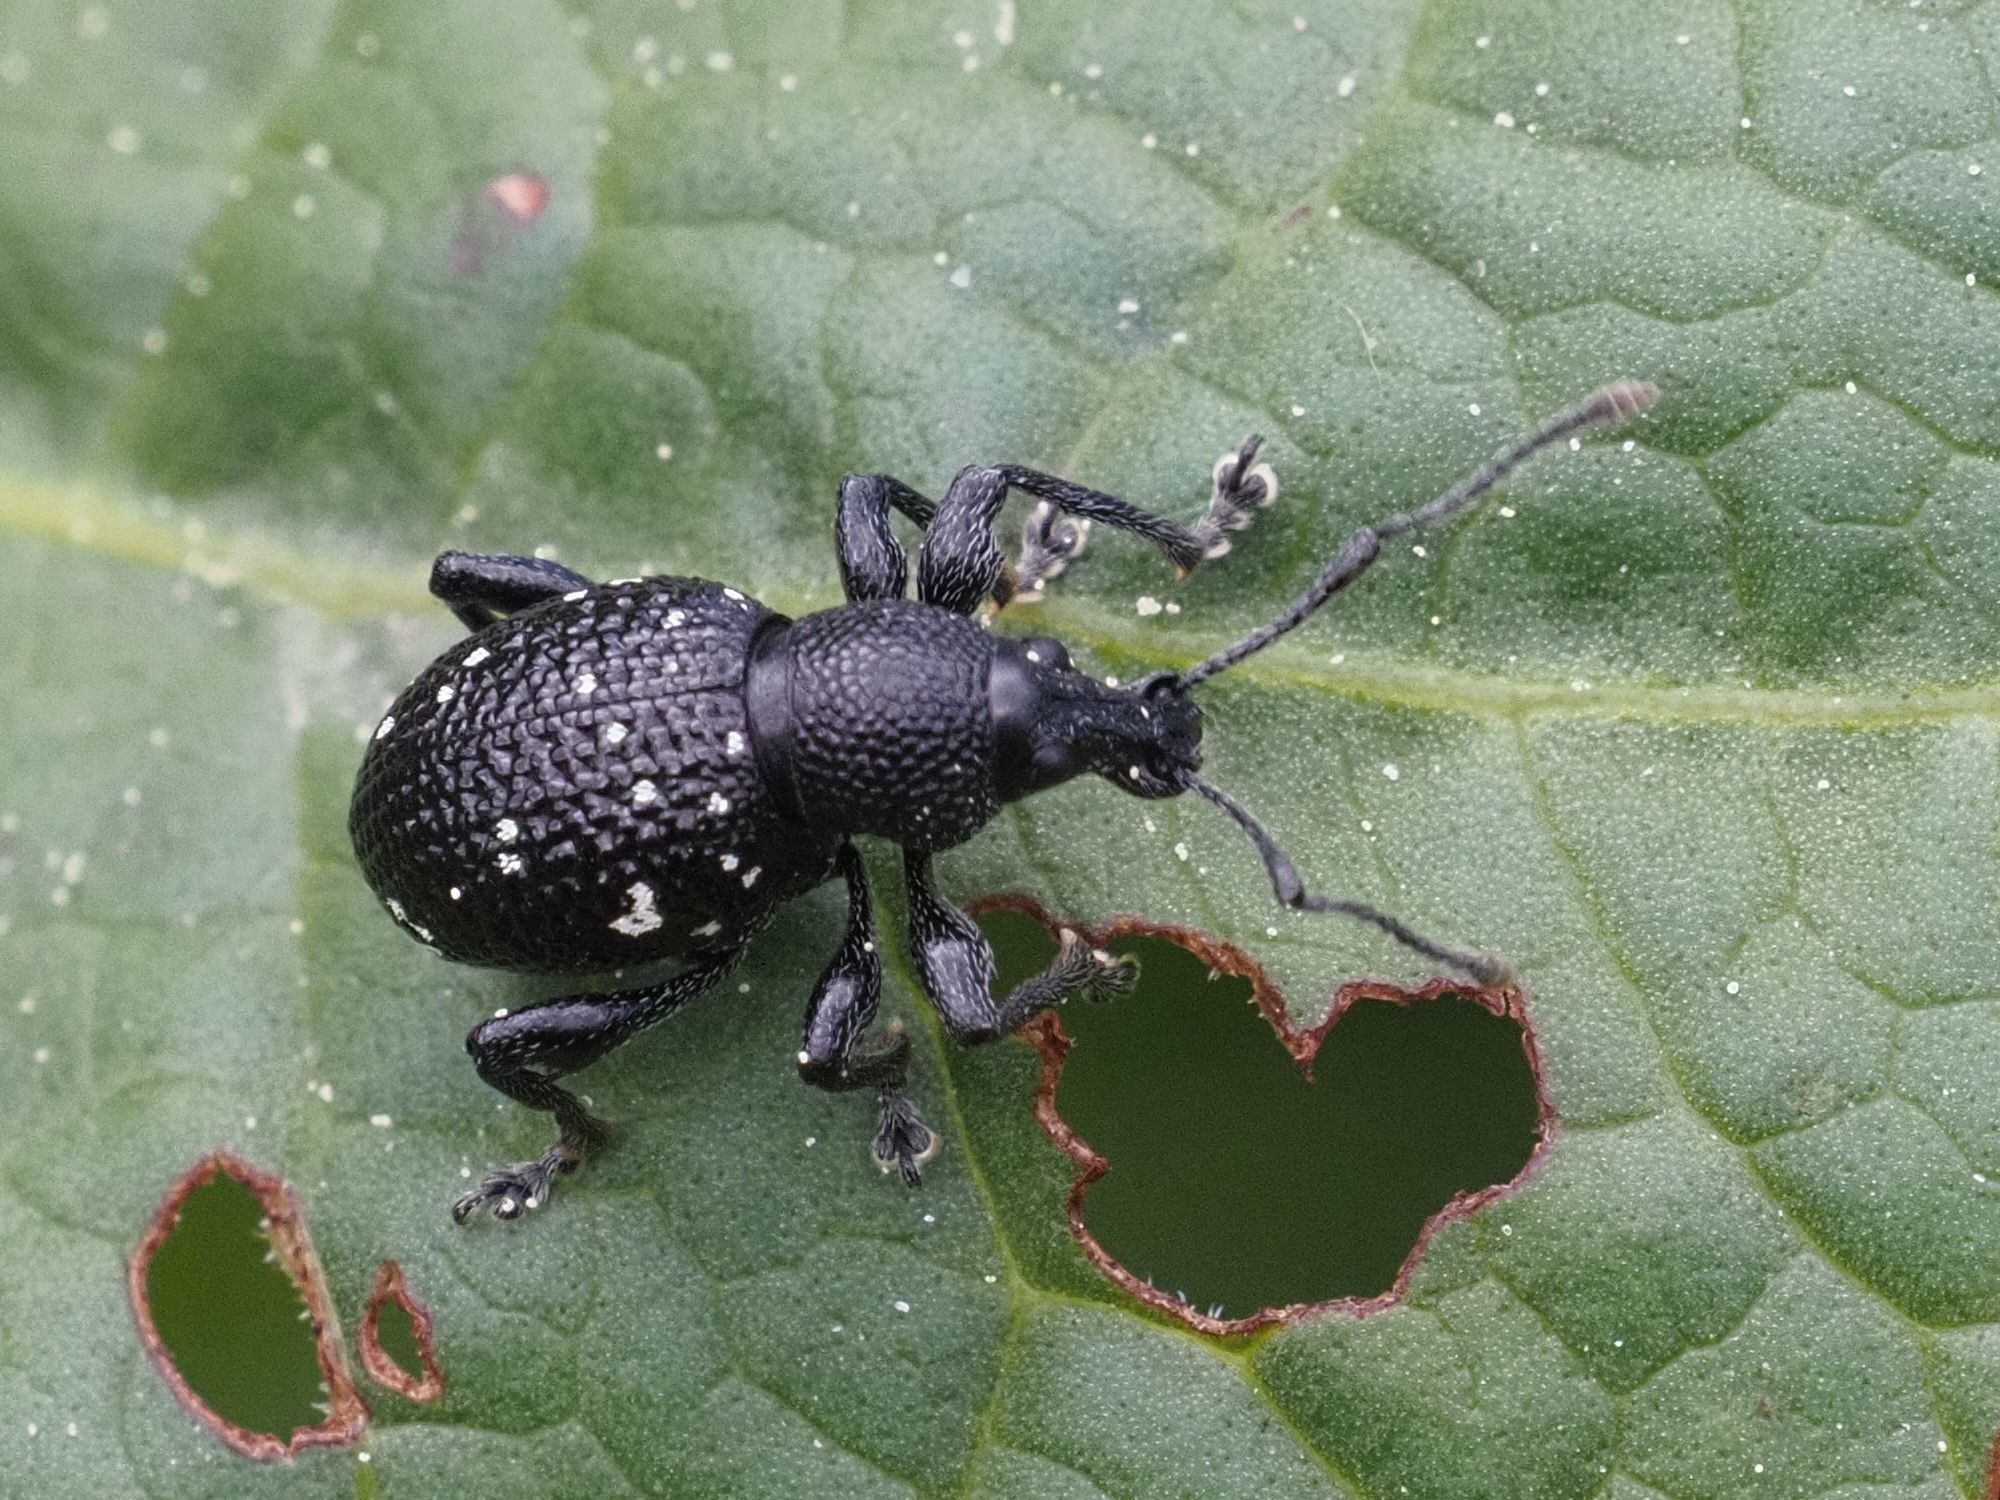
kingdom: Animalia
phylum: Arthropoda
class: Insecta
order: Coleoptera
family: Curculionidae
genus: Otiorhynchus
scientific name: Otiorhynchus gemmatus
